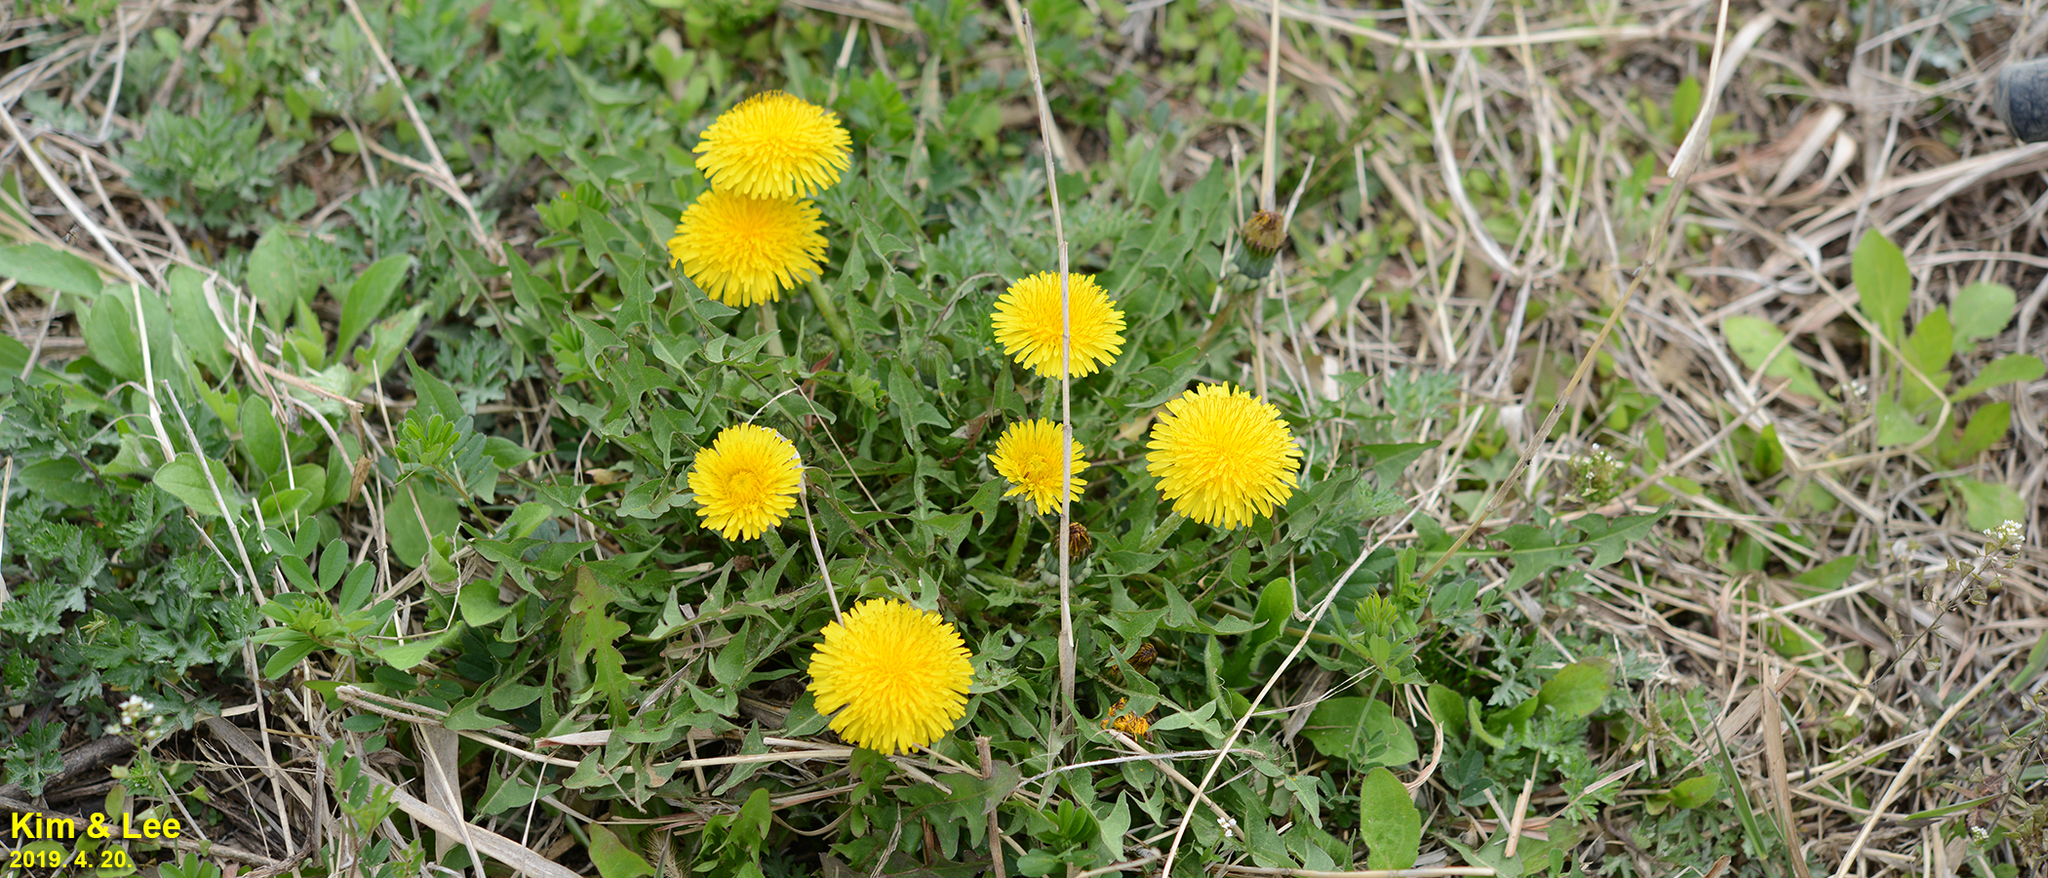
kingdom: Plantae
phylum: Tracheophyta
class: Magnoliopsida
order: Asterales
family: Asteraceae
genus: Taraxacum
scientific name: Taraxacum officinale
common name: Common dandelion
